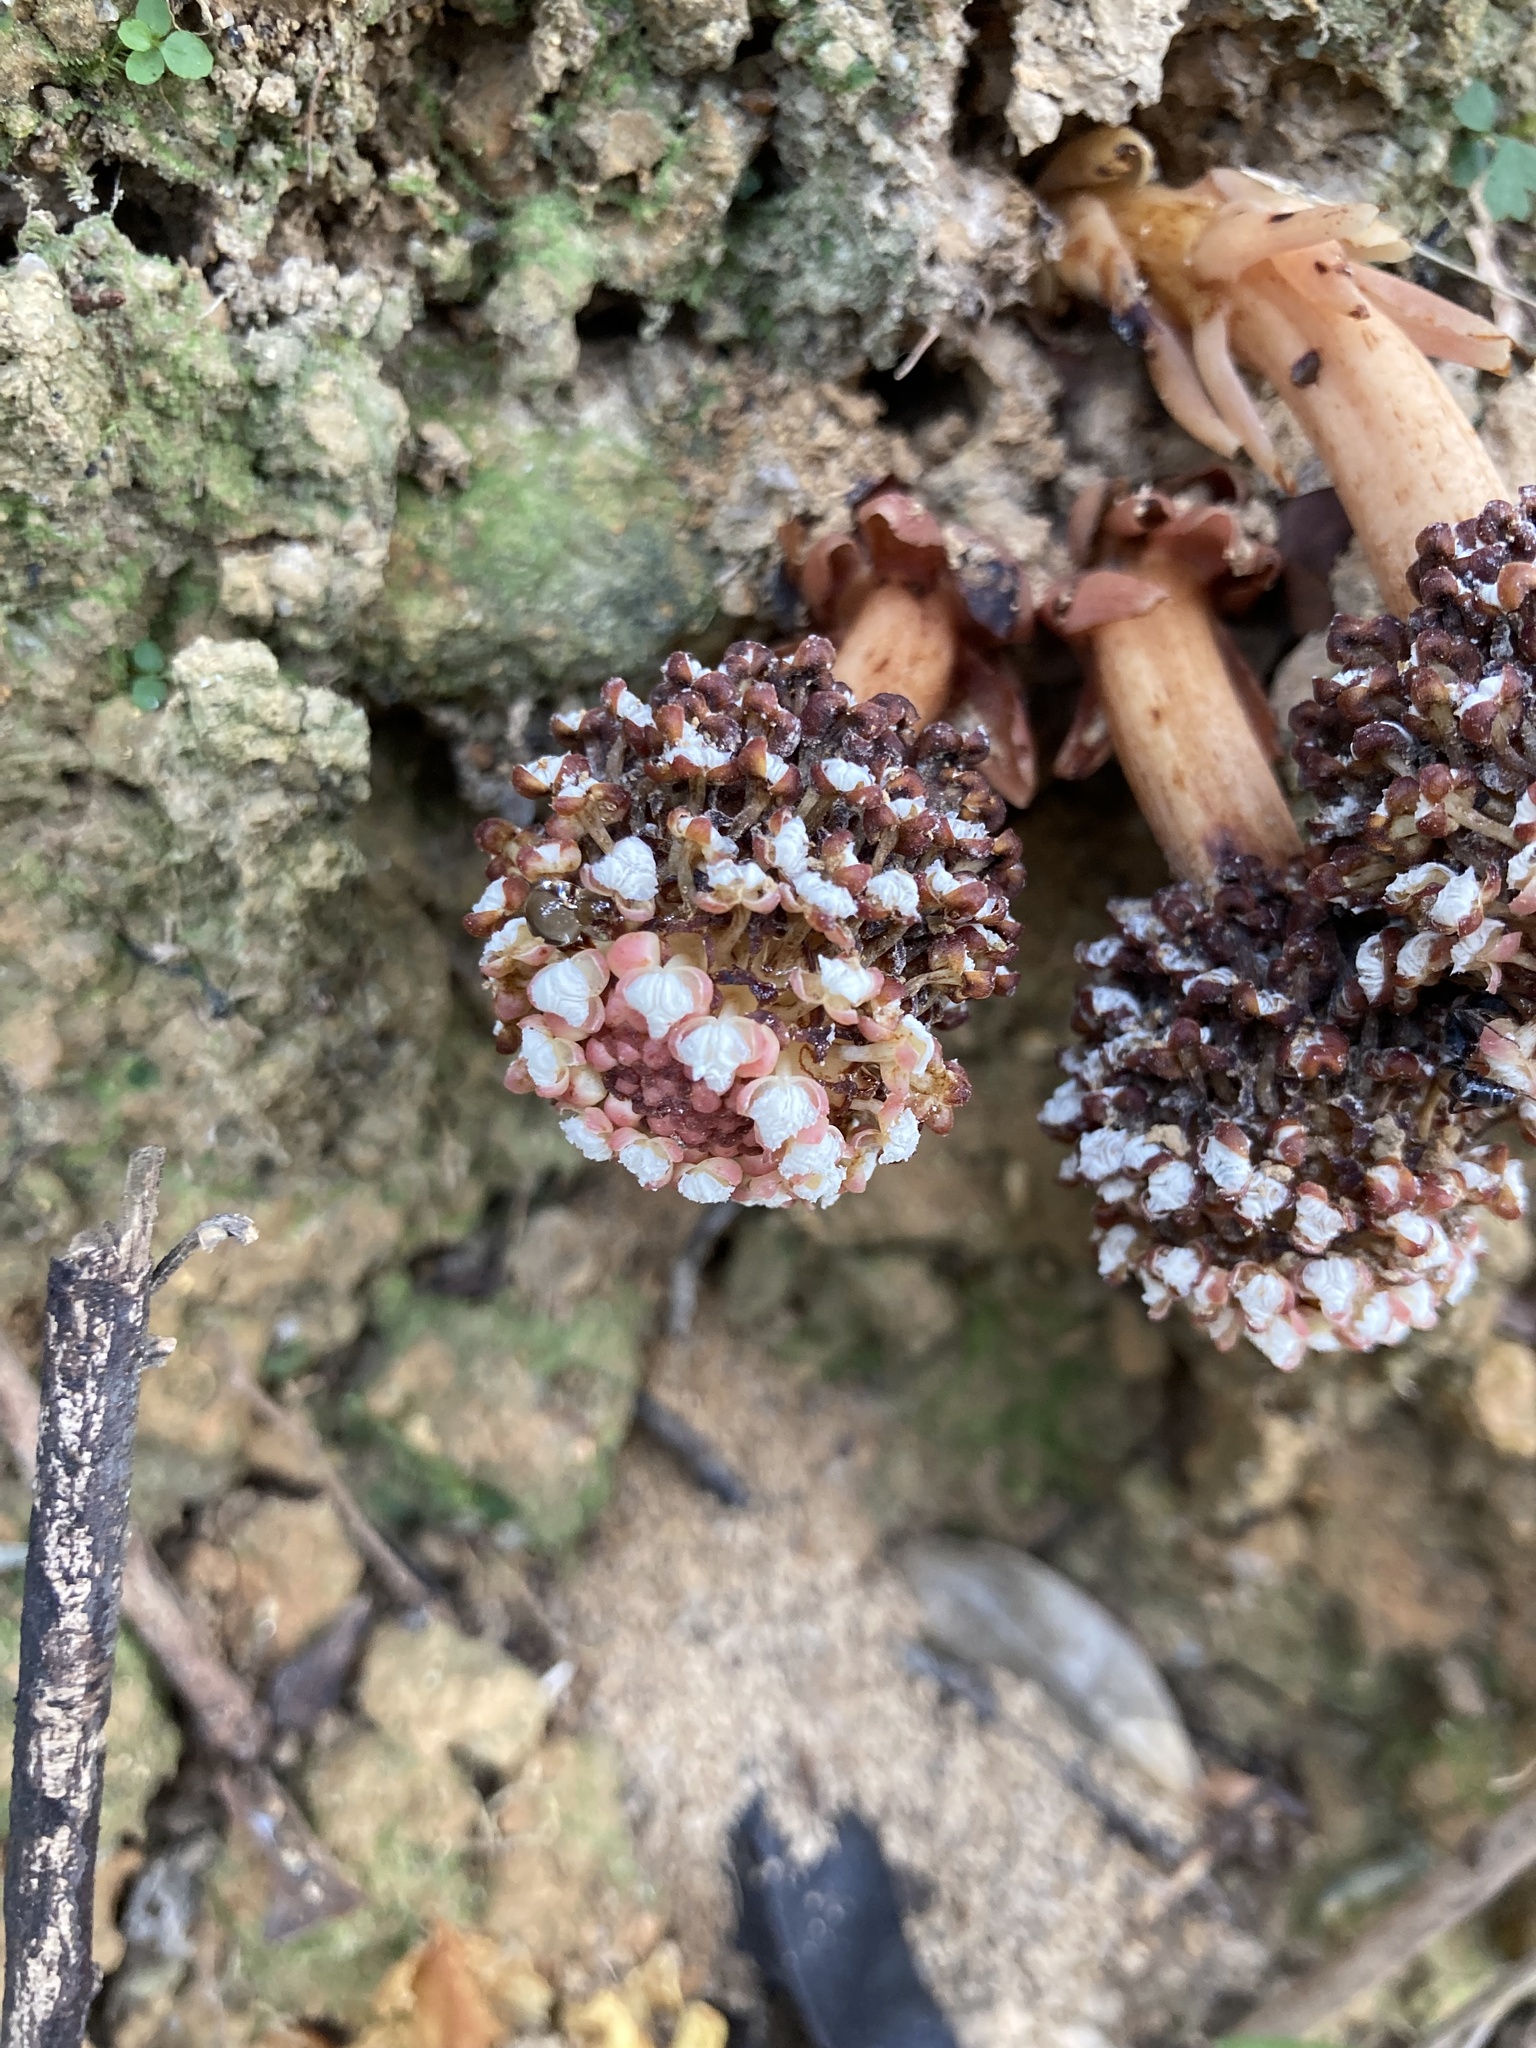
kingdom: Plantae
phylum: Tracheophyta
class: Magnoliopsida
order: Santalales
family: Balanophoraceae
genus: Balanophora
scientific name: Balanophora harlandii
